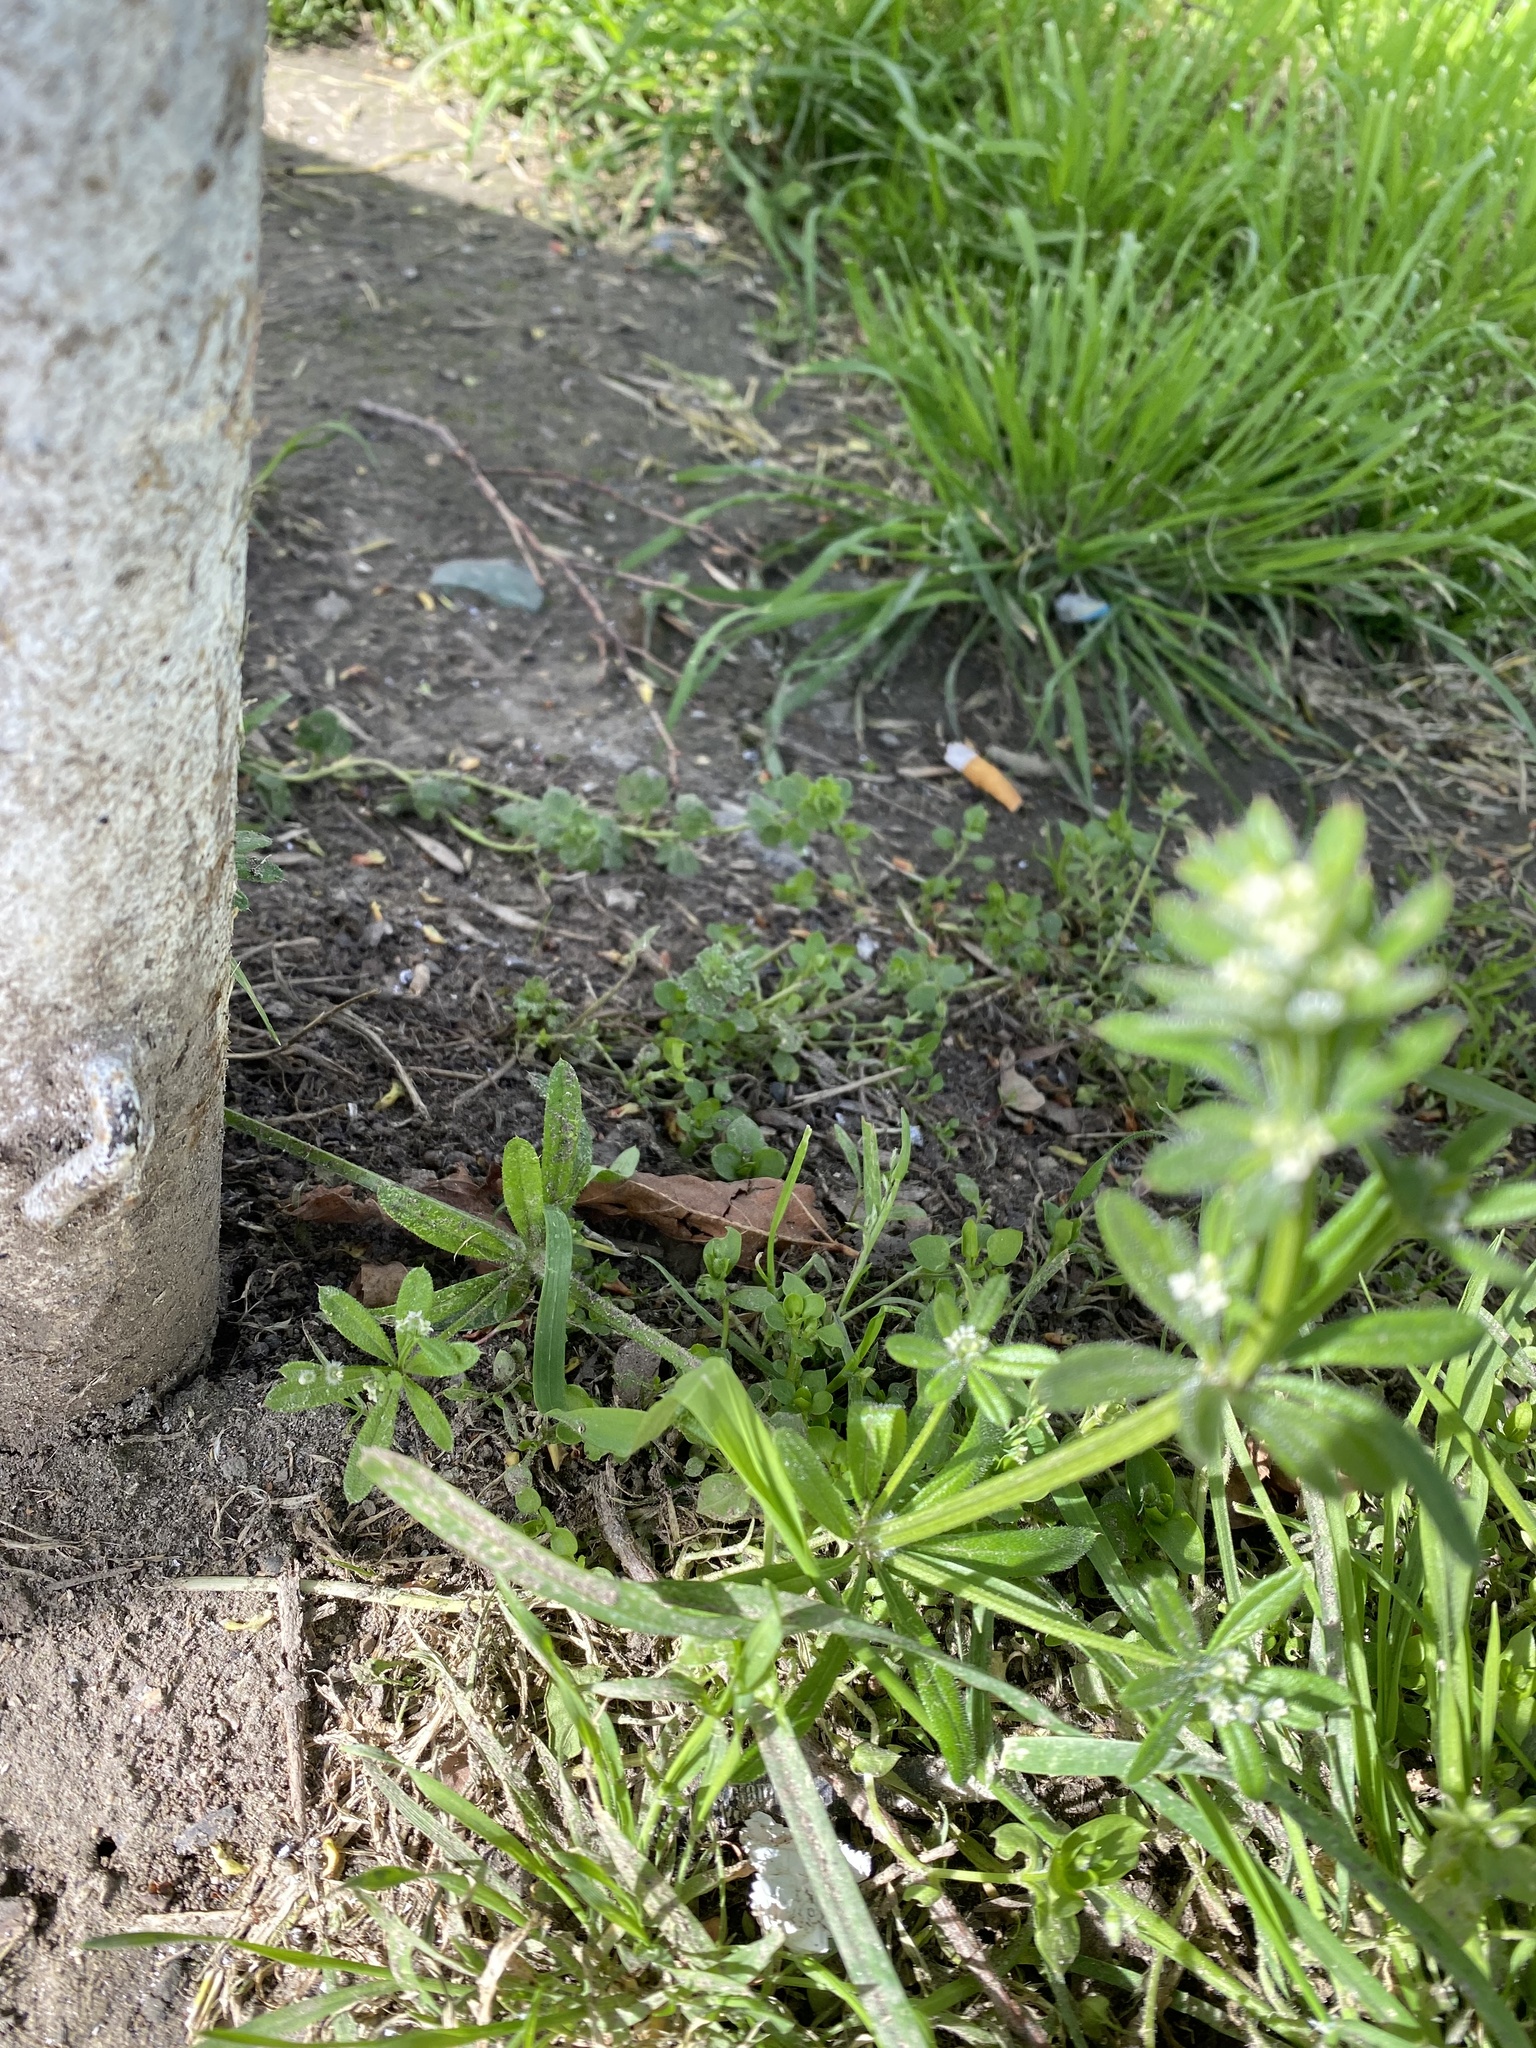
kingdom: Plantae
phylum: Tracheophyta
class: Magnoliopsida
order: Gentianales
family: Rubiaceae
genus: Galium
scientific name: Galium aparine
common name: Cleavers
